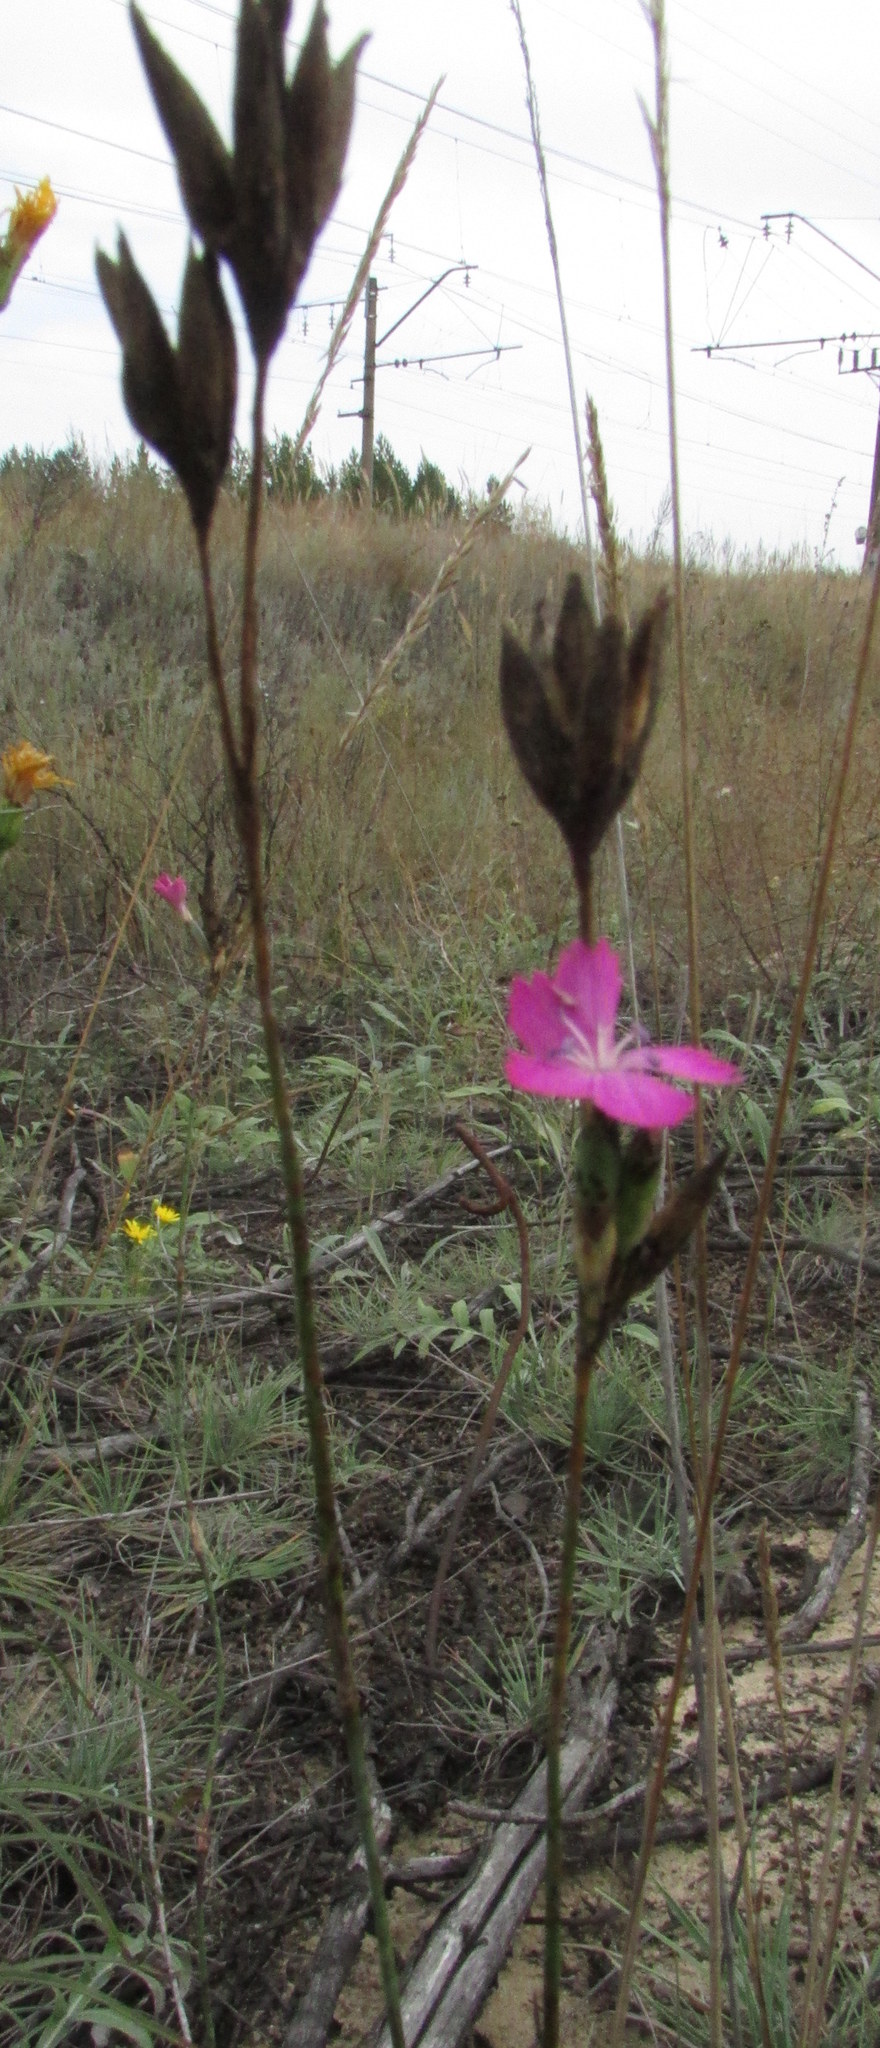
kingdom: Plantae
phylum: Tracheophyta
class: Magnoliopsida
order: Caryophyllales
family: Caryophyllaceae
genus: Dianthus
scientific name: Dianthus borbasii
